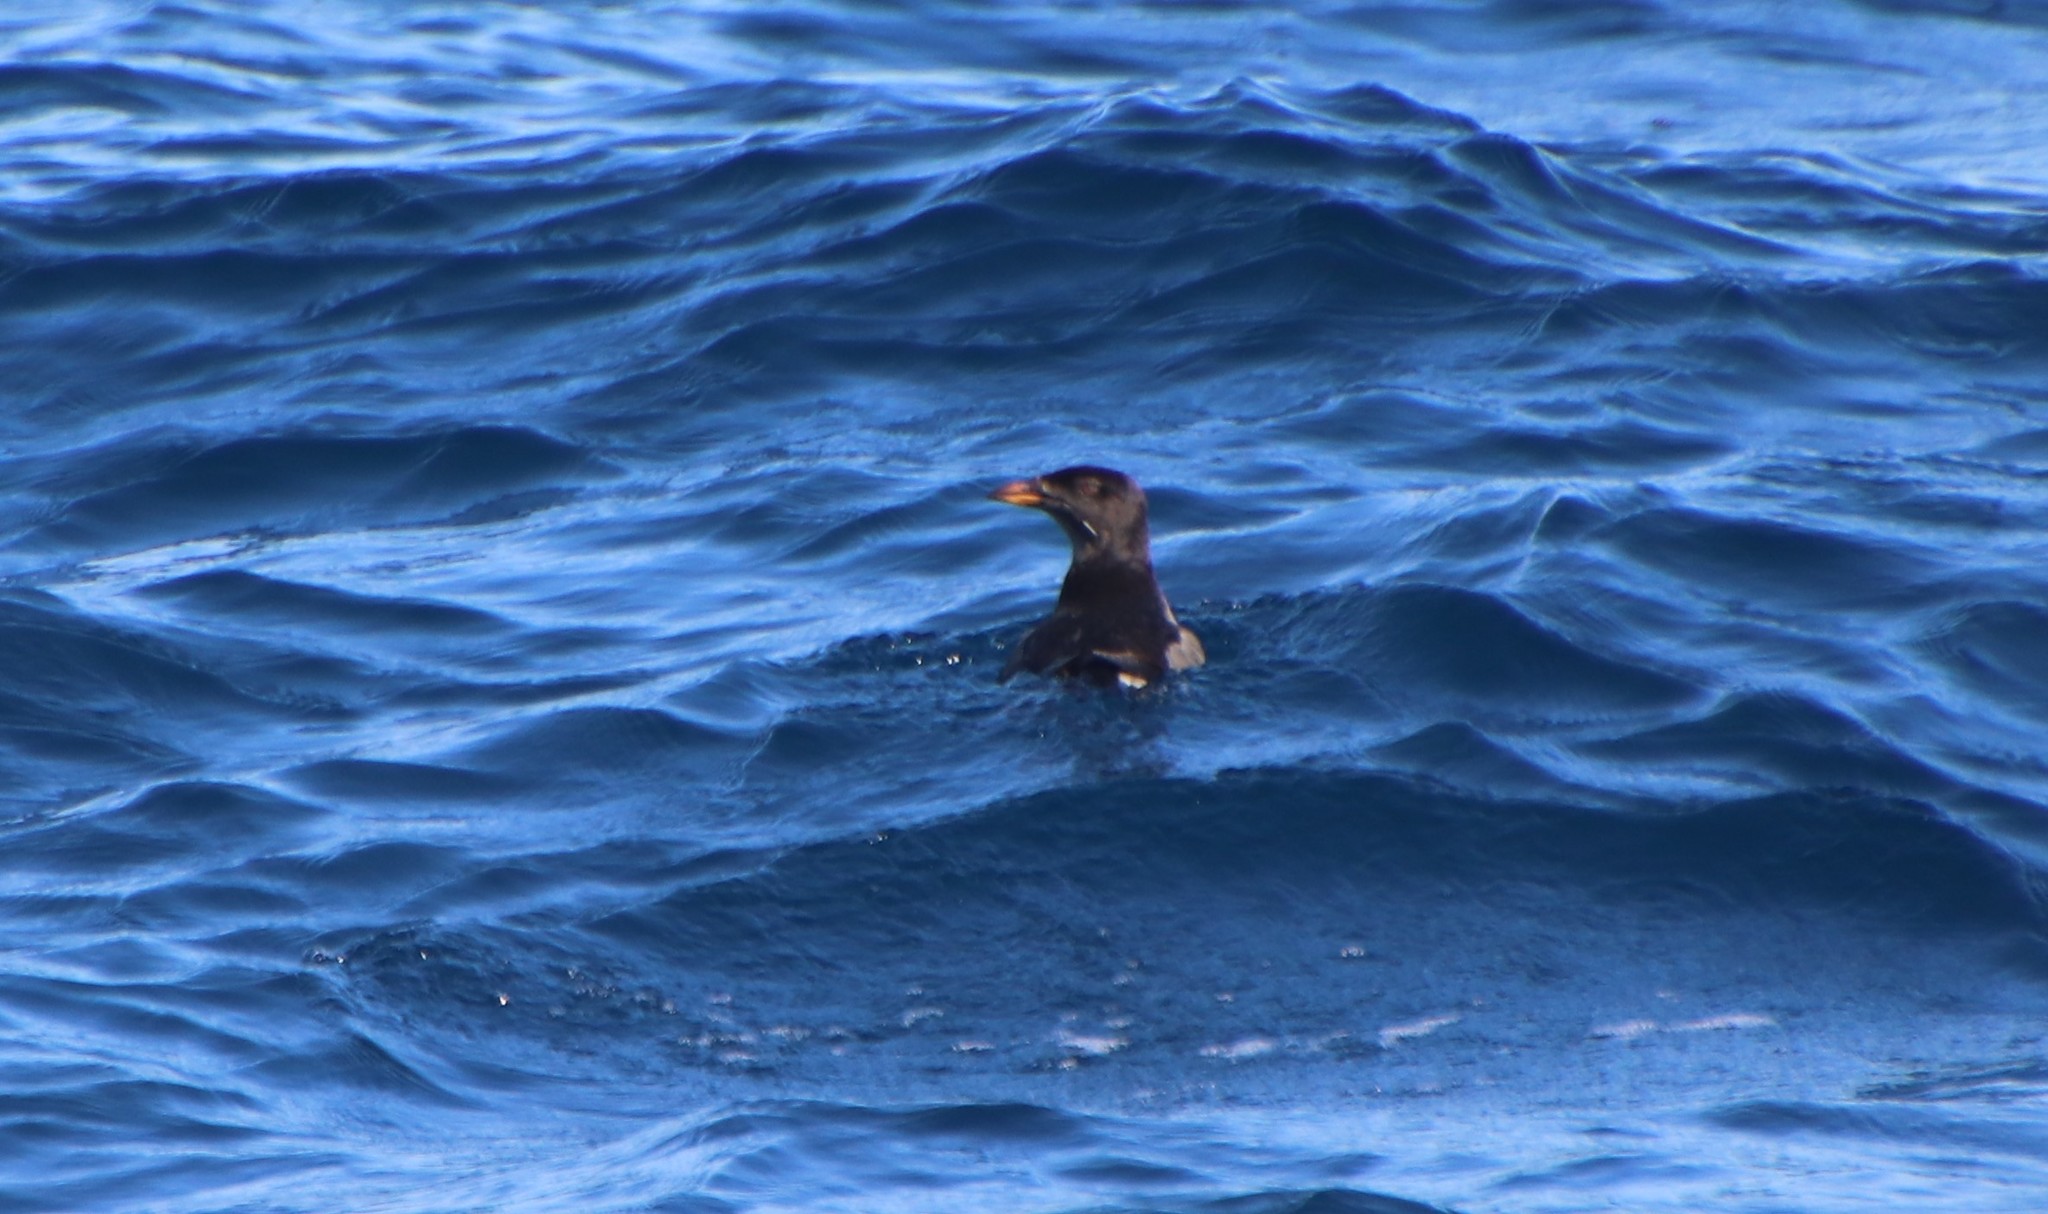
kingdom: Animalia
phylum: Chordata
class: Aves
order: Charadriiformes
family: Alcidae
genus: Cerorhinca
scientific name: Cerorhinca monocerata
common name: Rhinoceros auklet
